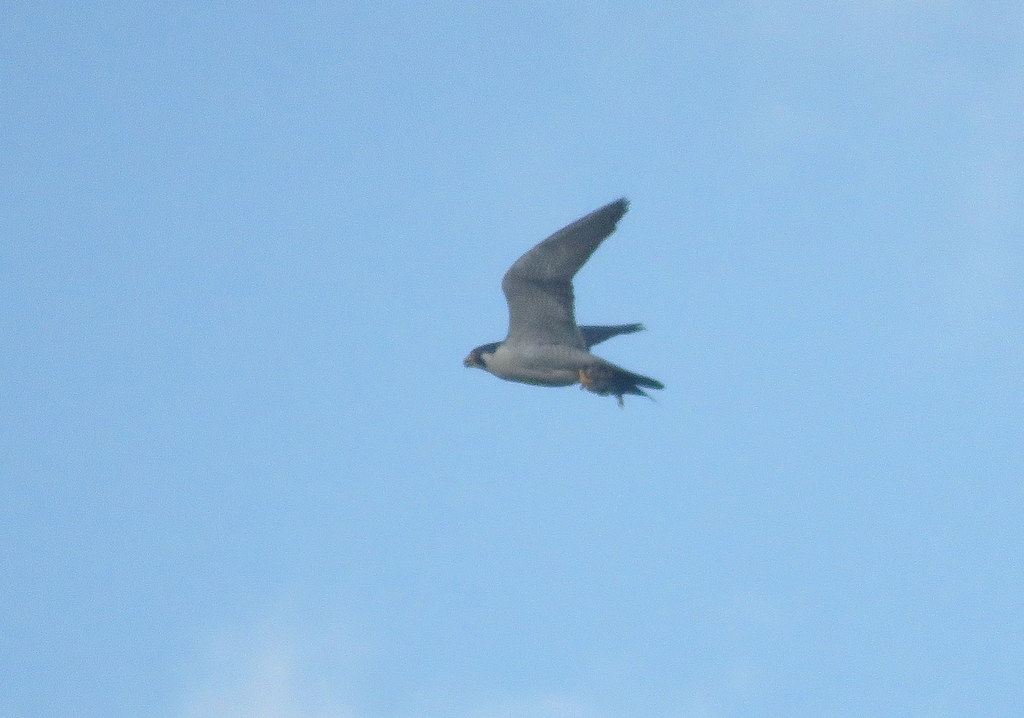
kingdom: Animalia
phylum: Chordata
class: Aves
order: Falconiformes
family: Falconidae
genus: Falco
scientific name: Falco peregrinus
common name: Peregrine falcon
